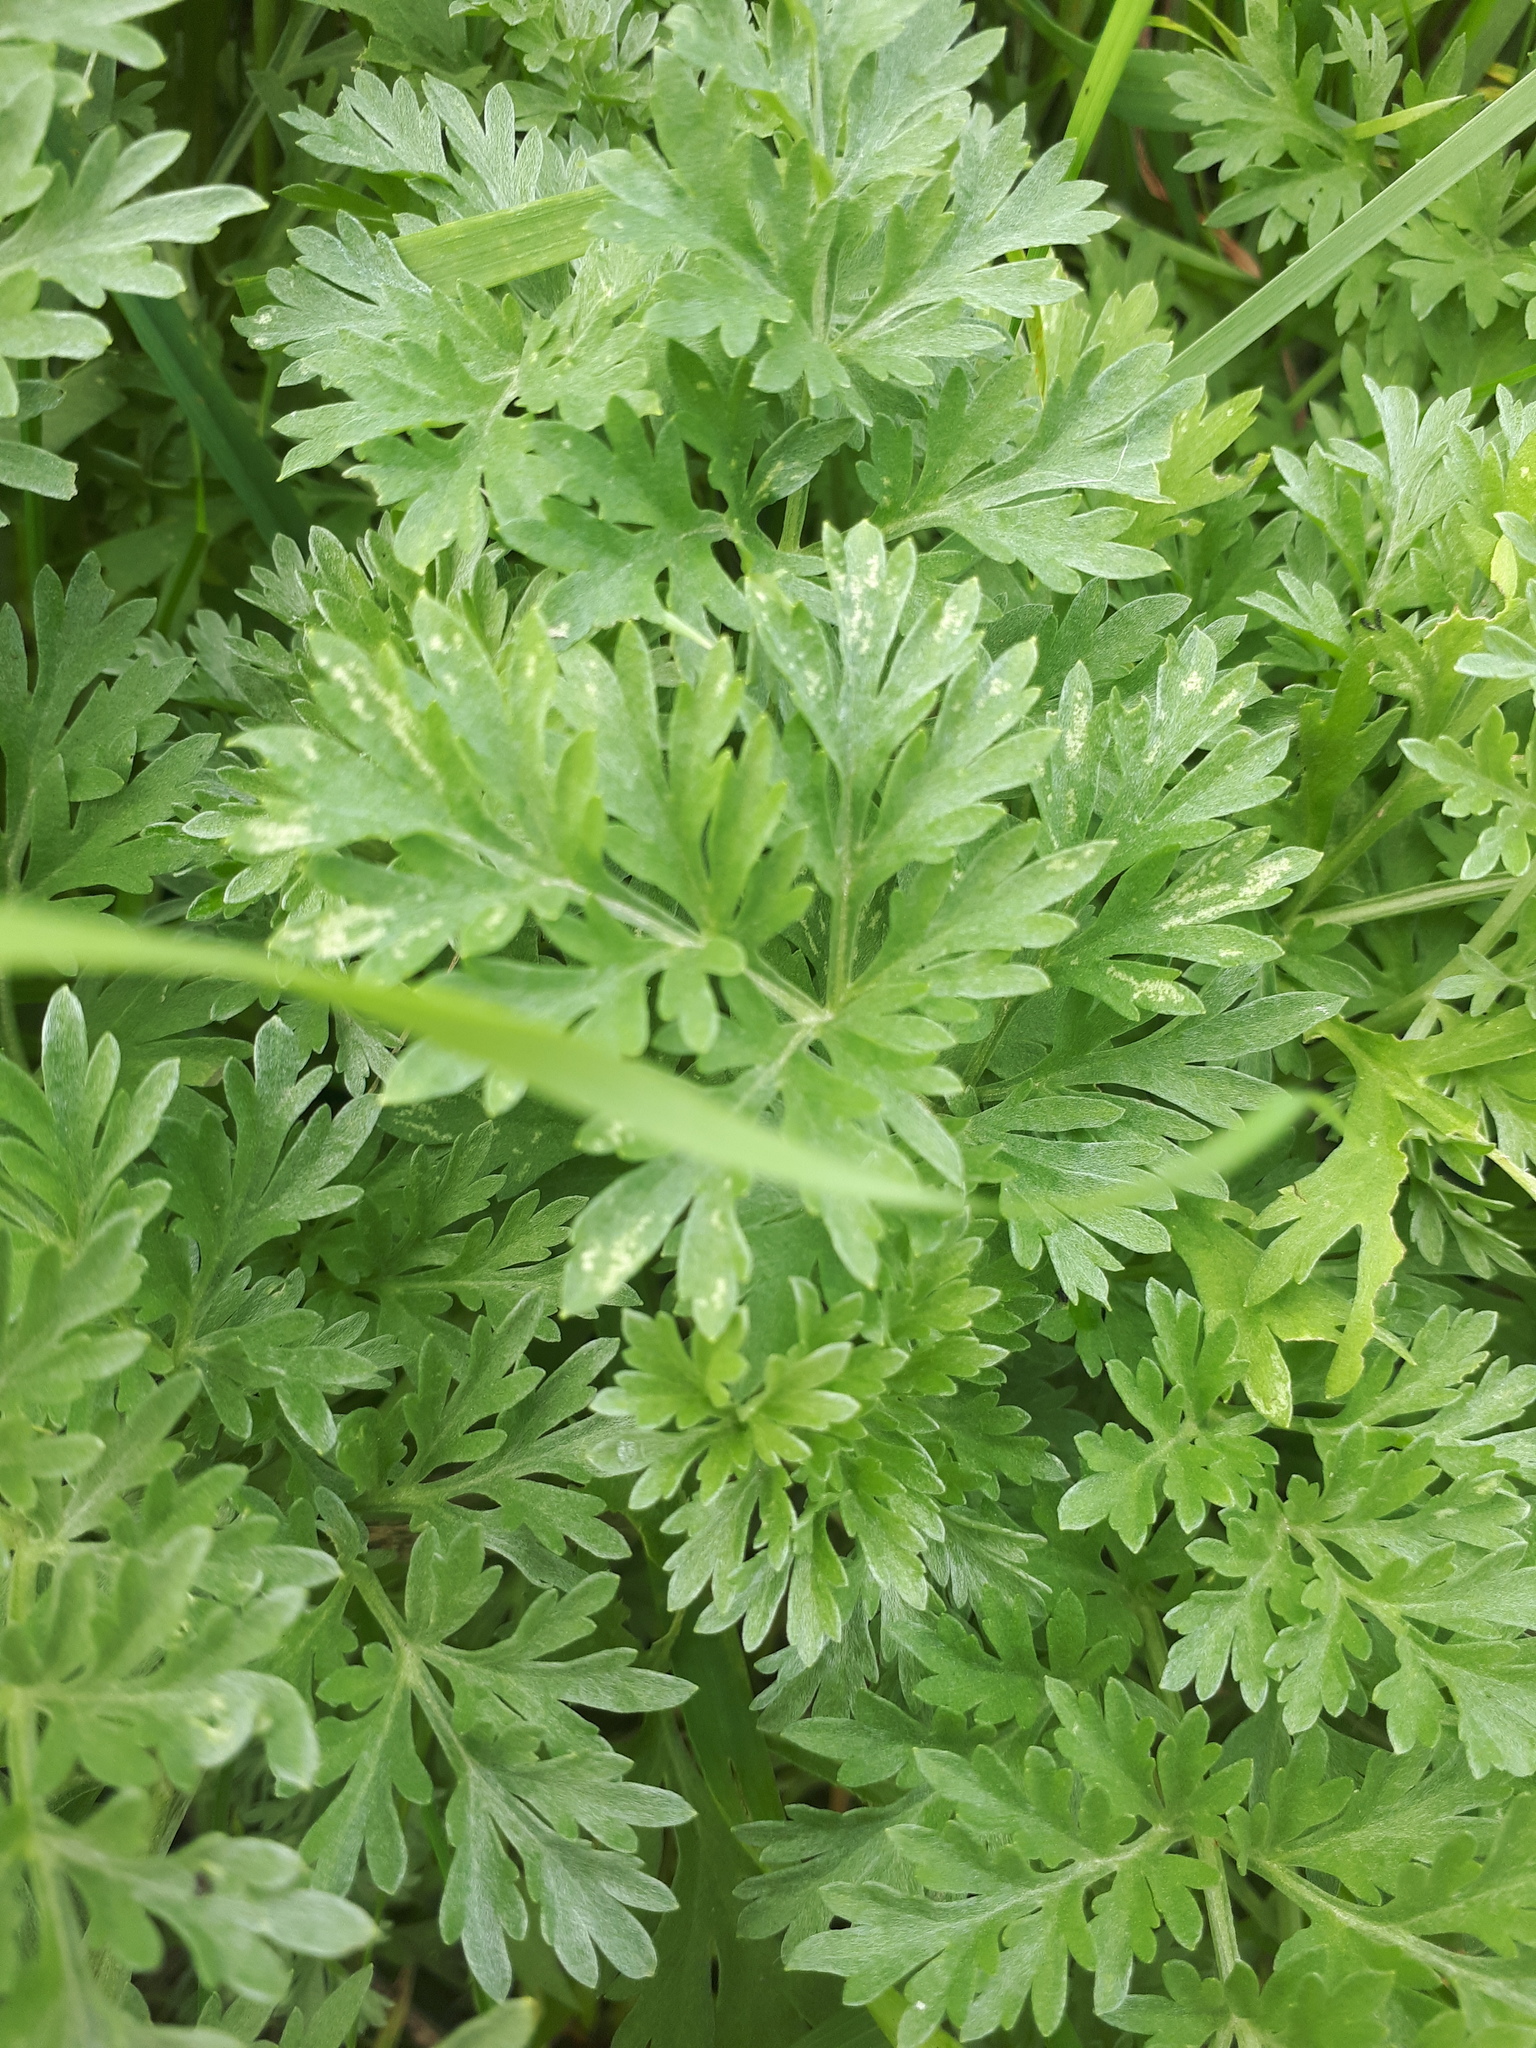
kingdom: Plantae
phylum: Tracheophyta
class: Magnoliopsida
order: Asterales
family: Asteraceae
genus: Artemisia
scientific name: Artemisia absinthium
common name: Wormwood
